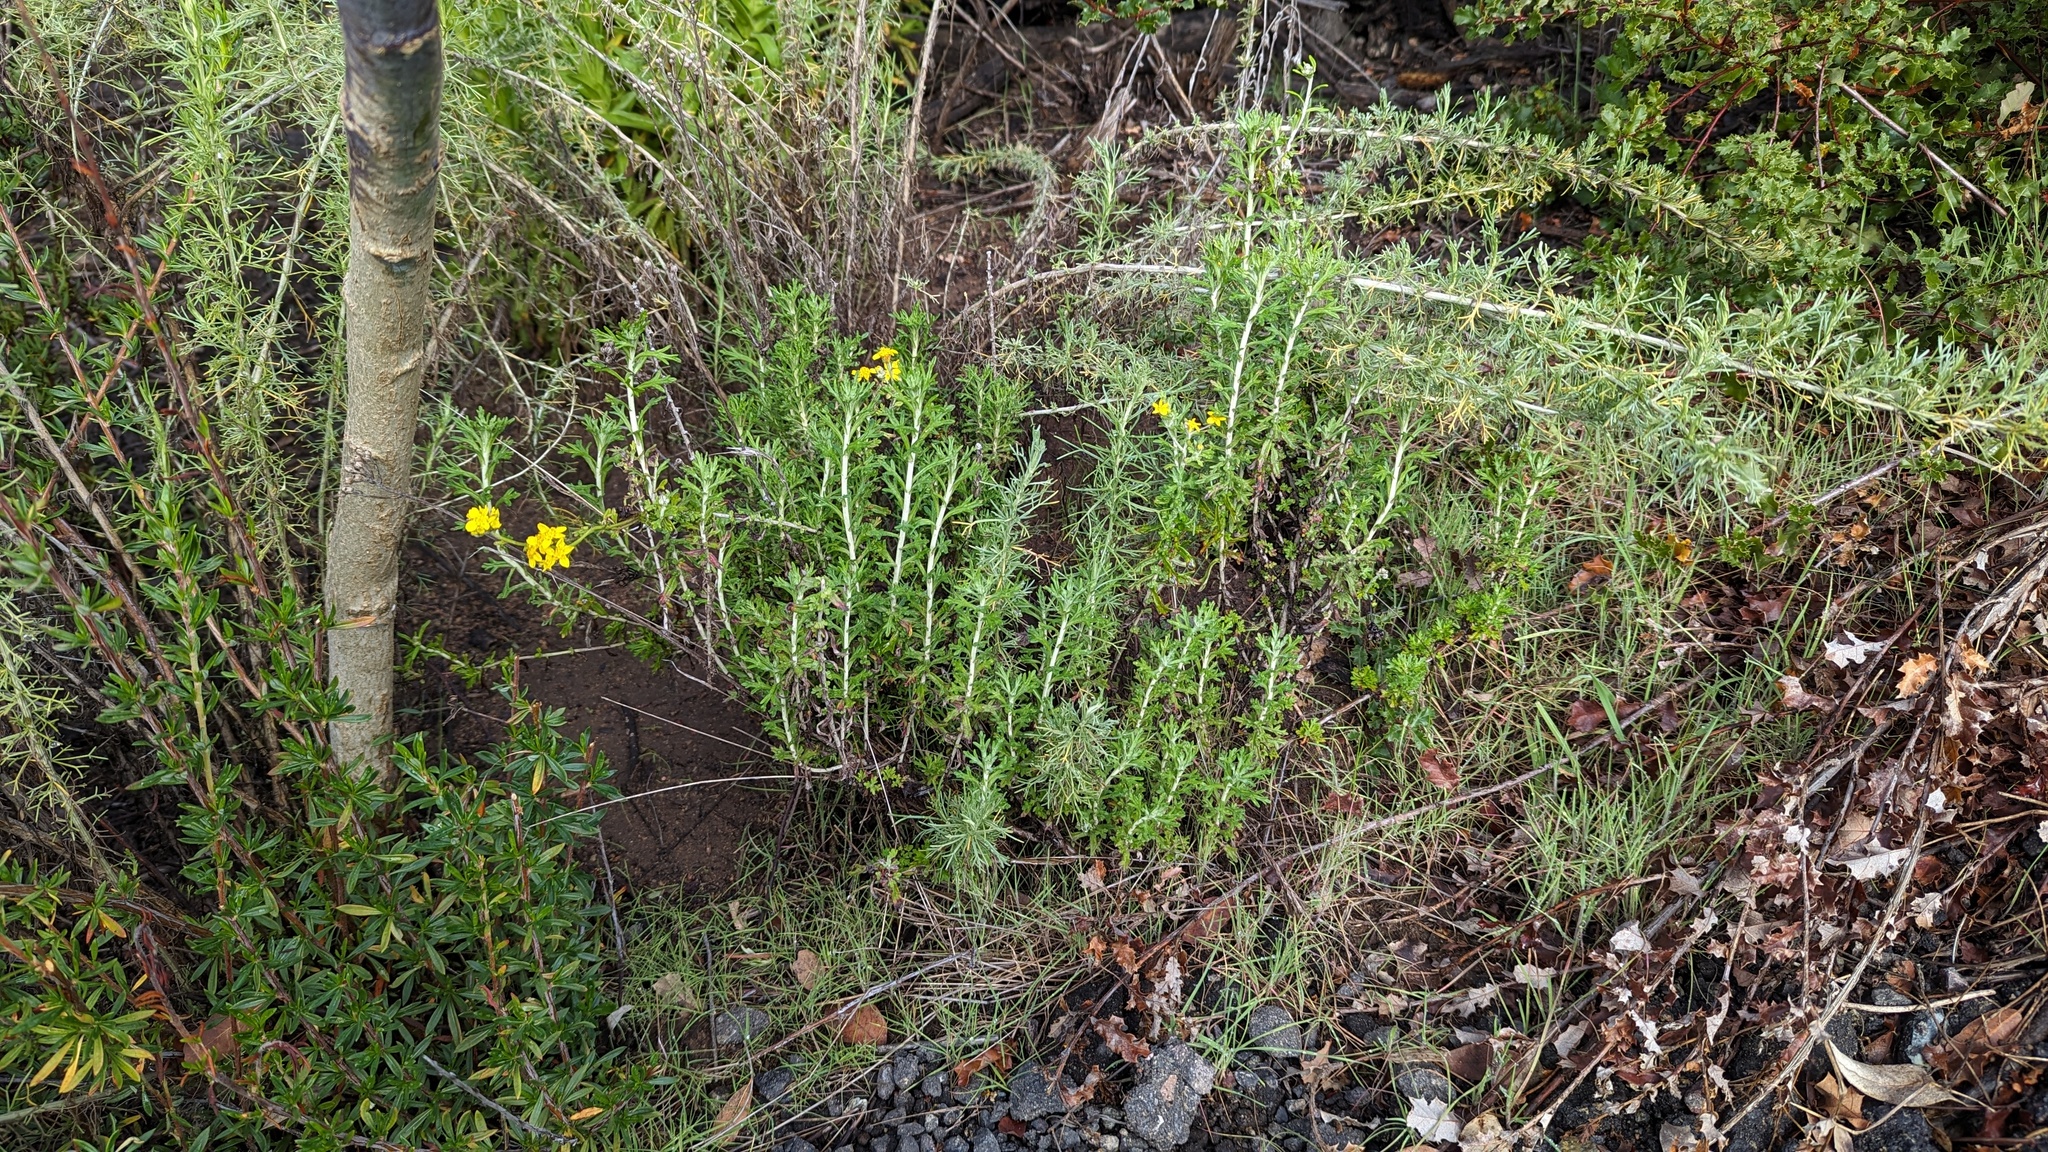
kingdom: Plantae
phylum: Tracheophyta
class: Magnoliopsida
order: Asterales
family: Asteraceae
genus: Eriophyllum
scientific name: Eriophyllum confertiflorum
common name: Golden-yarrow
